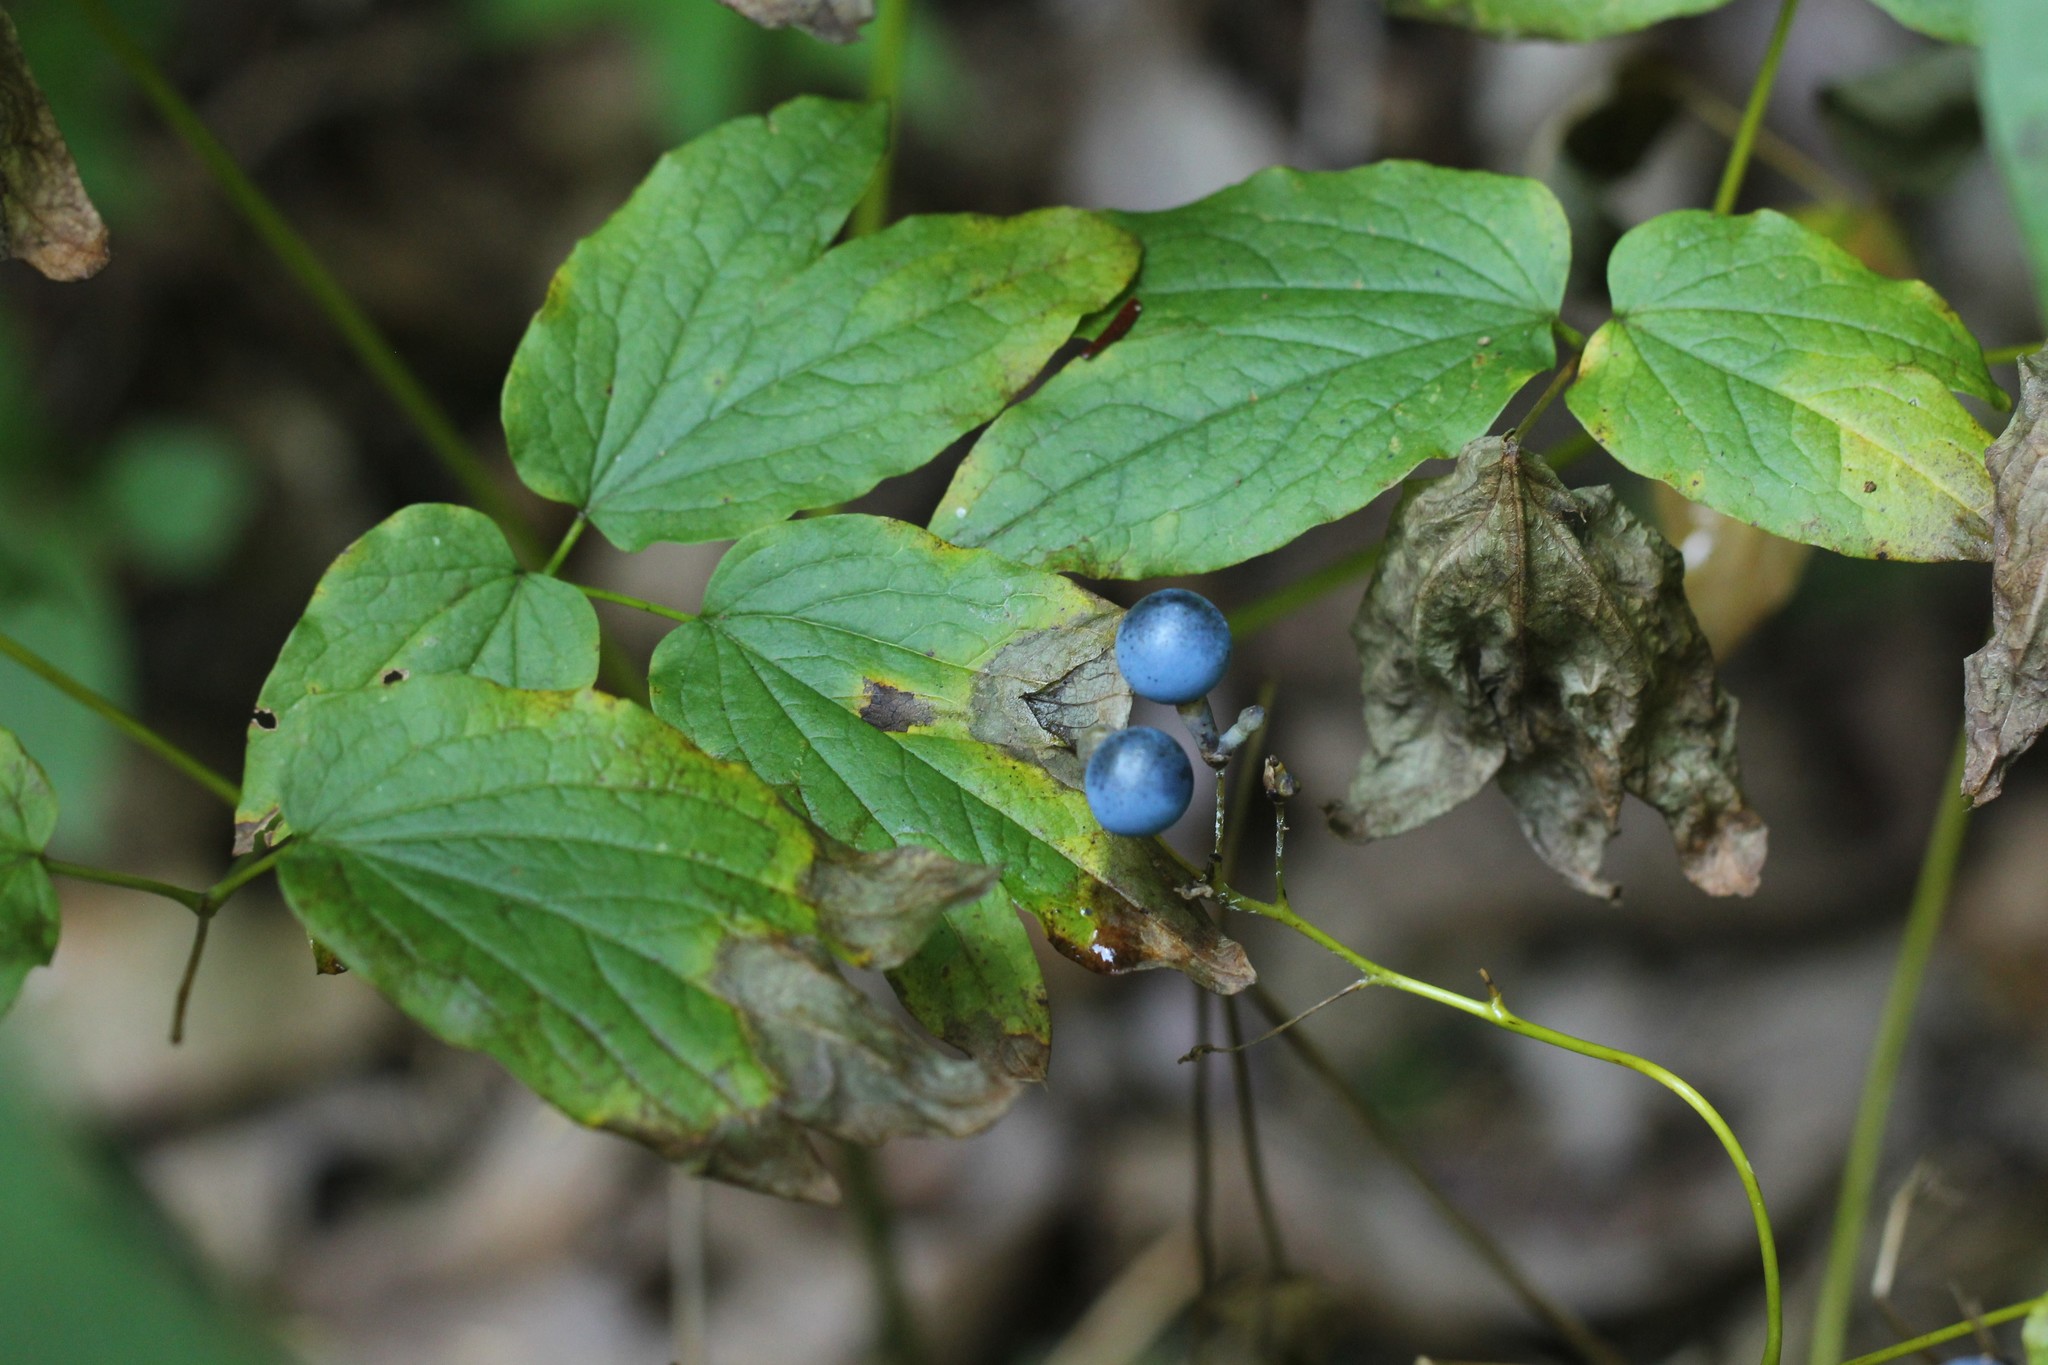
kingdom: Plantae
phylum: Tracheophyta
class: Magnoliopsida
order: Ranunculales
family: Berberidaceae
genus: Caulophyllum
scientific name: Caulophyllum thalictroides
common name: Blue cohosh
